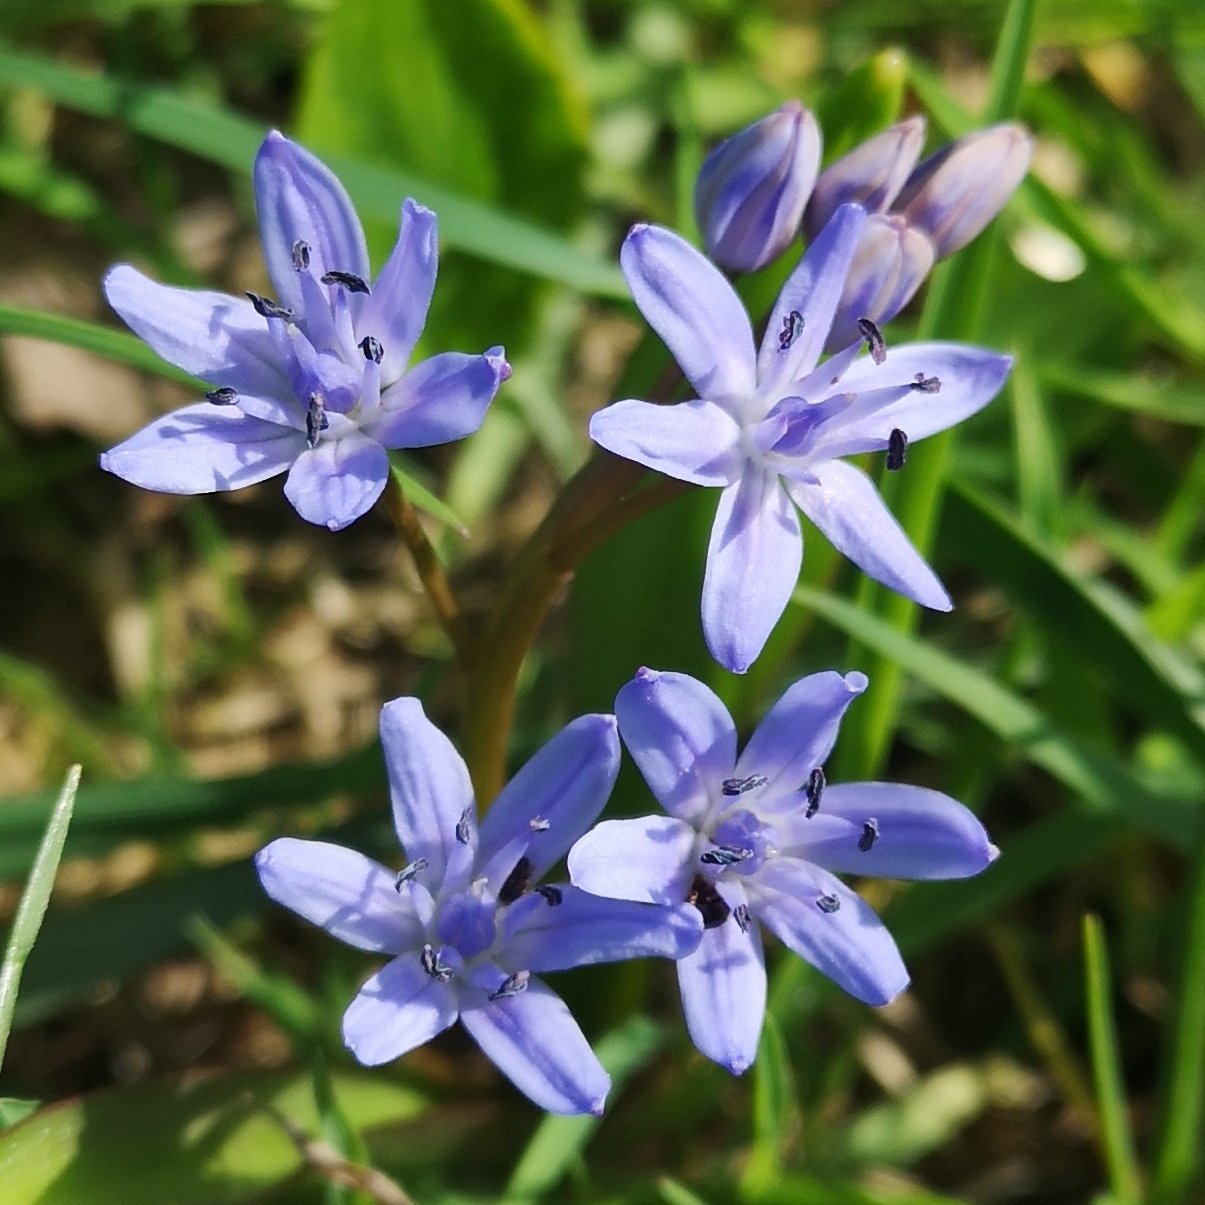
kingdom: Plantae
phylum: Tracheophyta
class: Liliopsida
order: Asparagales
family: Asparagaceae
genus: Scilla
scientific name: Scilla bifolia
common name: Alpine squill
